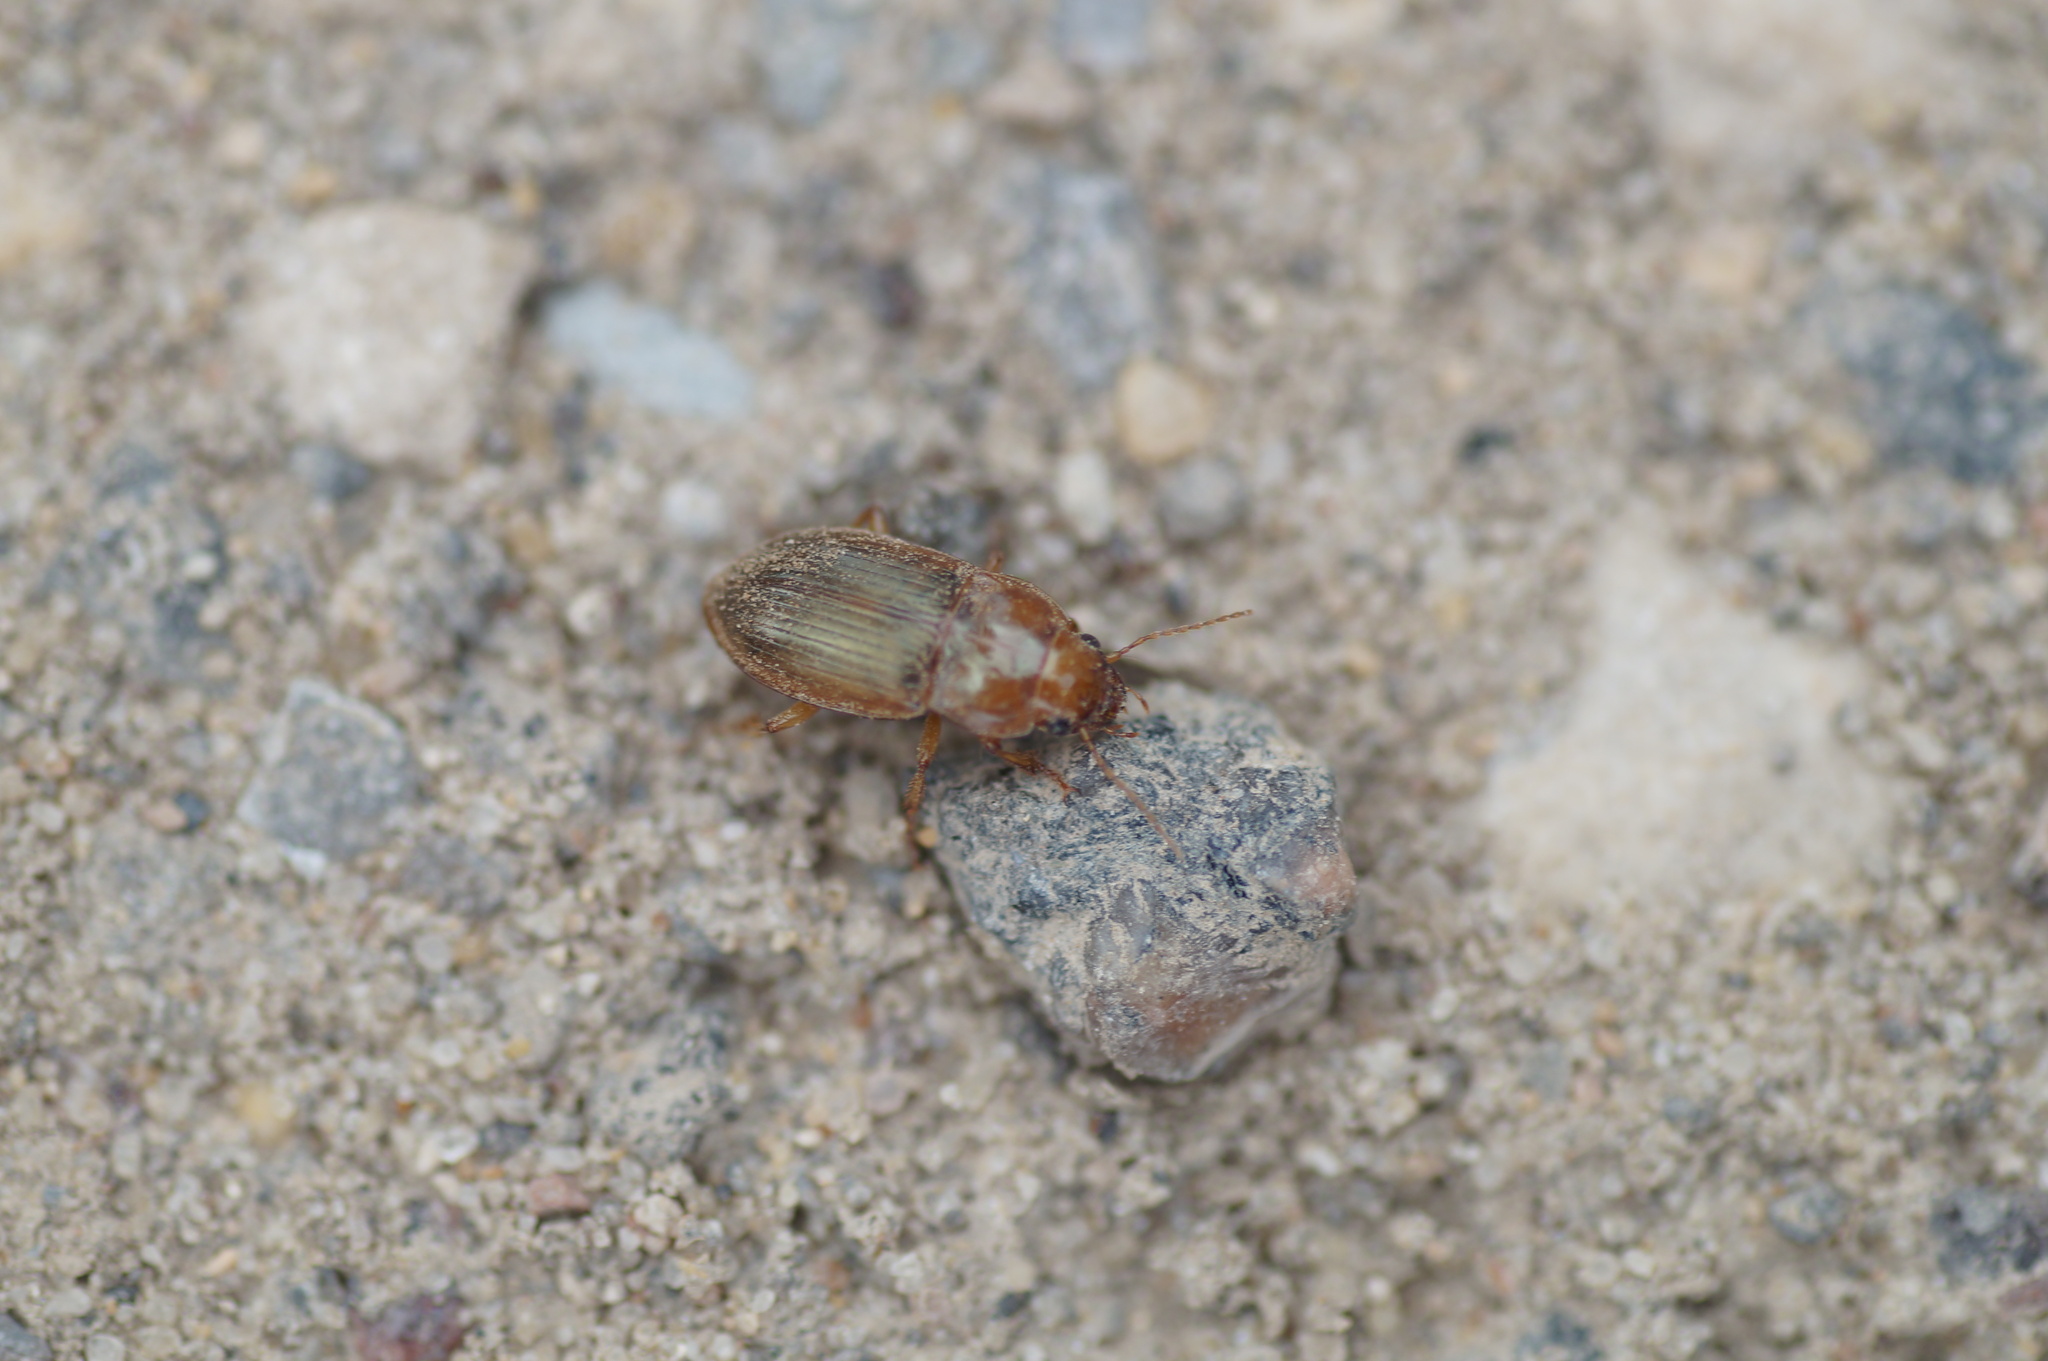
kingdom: Animalia
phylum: Arthropoda
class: Insecta
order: Coleoptera
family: Carabidae
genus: Amara
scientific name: Amara fulva
